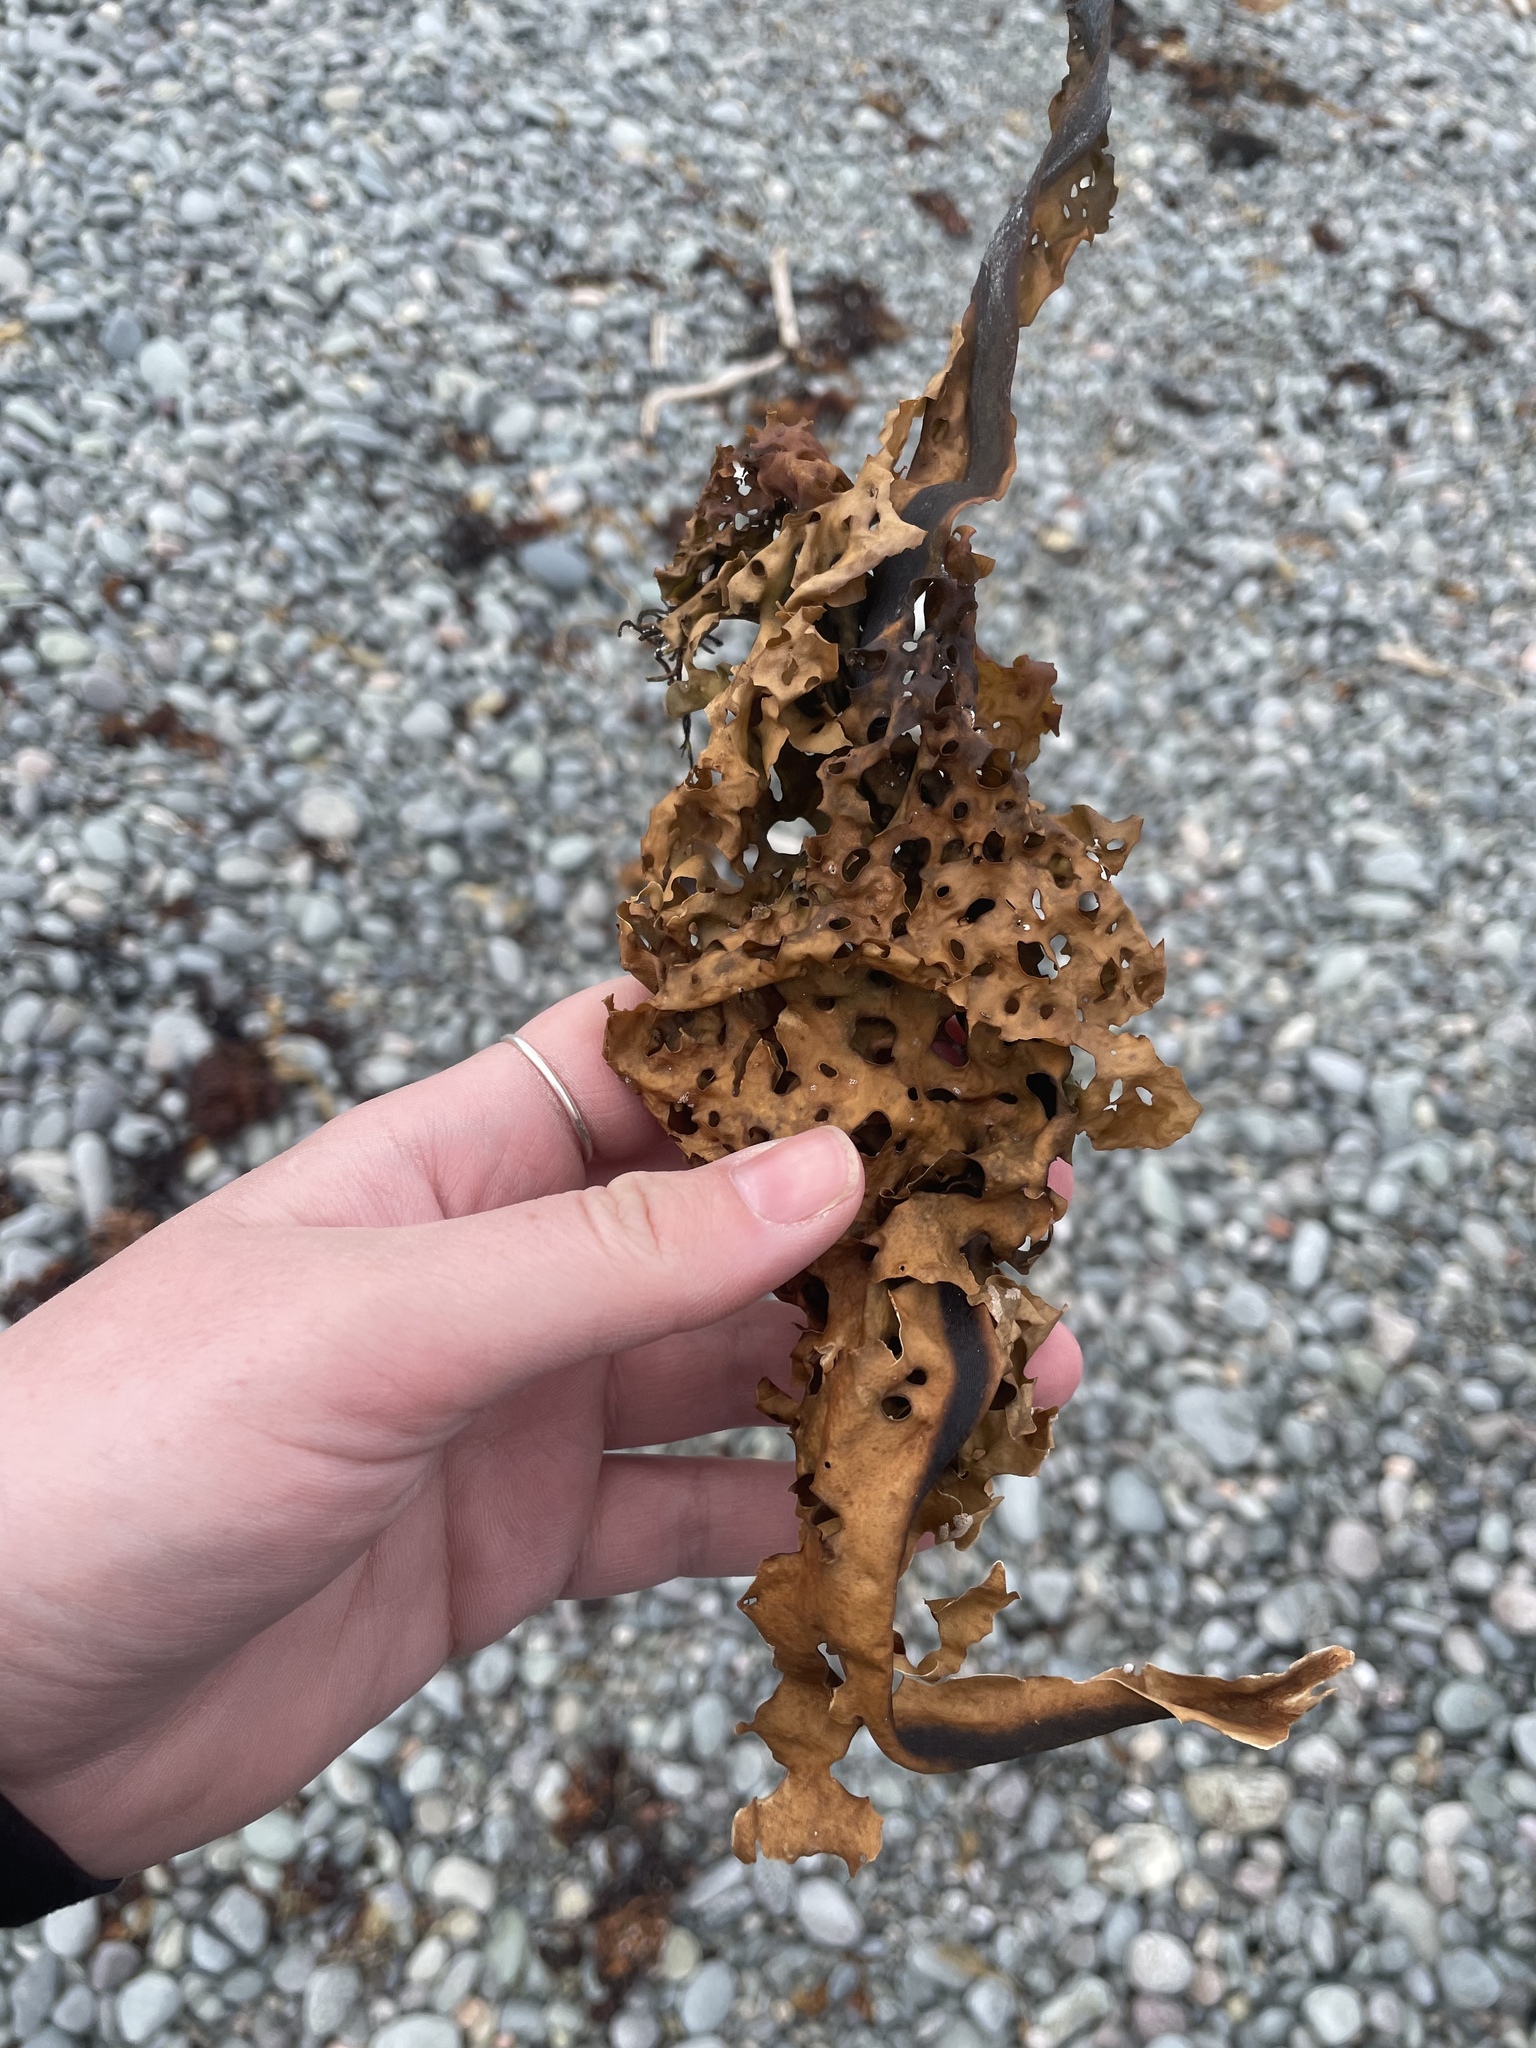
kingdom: Chromista
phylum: Ochrophyta
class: Phaeophyceae
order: Laminariales
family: Costariaceae
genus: Agarum
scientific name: Agarum clathratum
